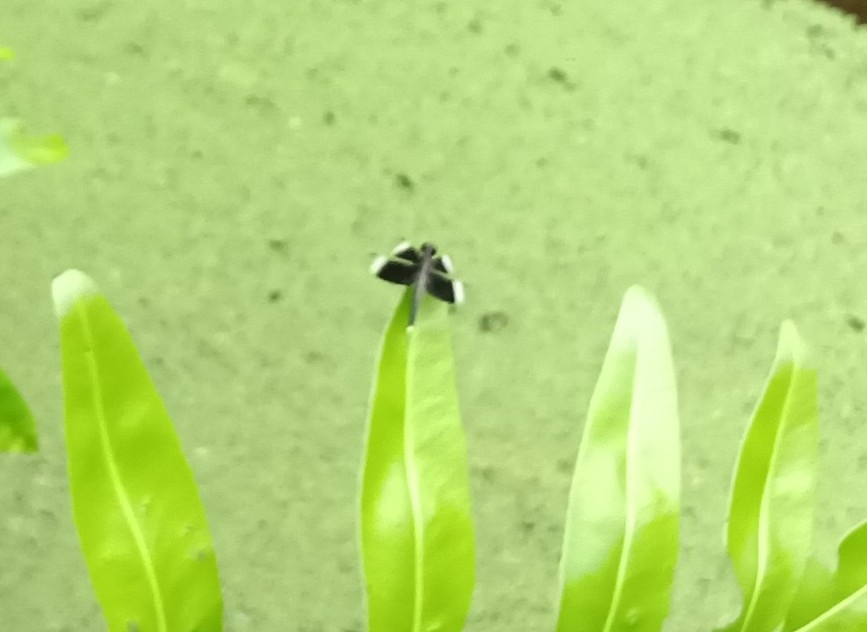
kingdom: Animalia
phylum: Arthropoda
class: Insecta
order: Odonata
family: Libellulidae
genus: Neurothemis
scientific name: Neurothemis tullia
